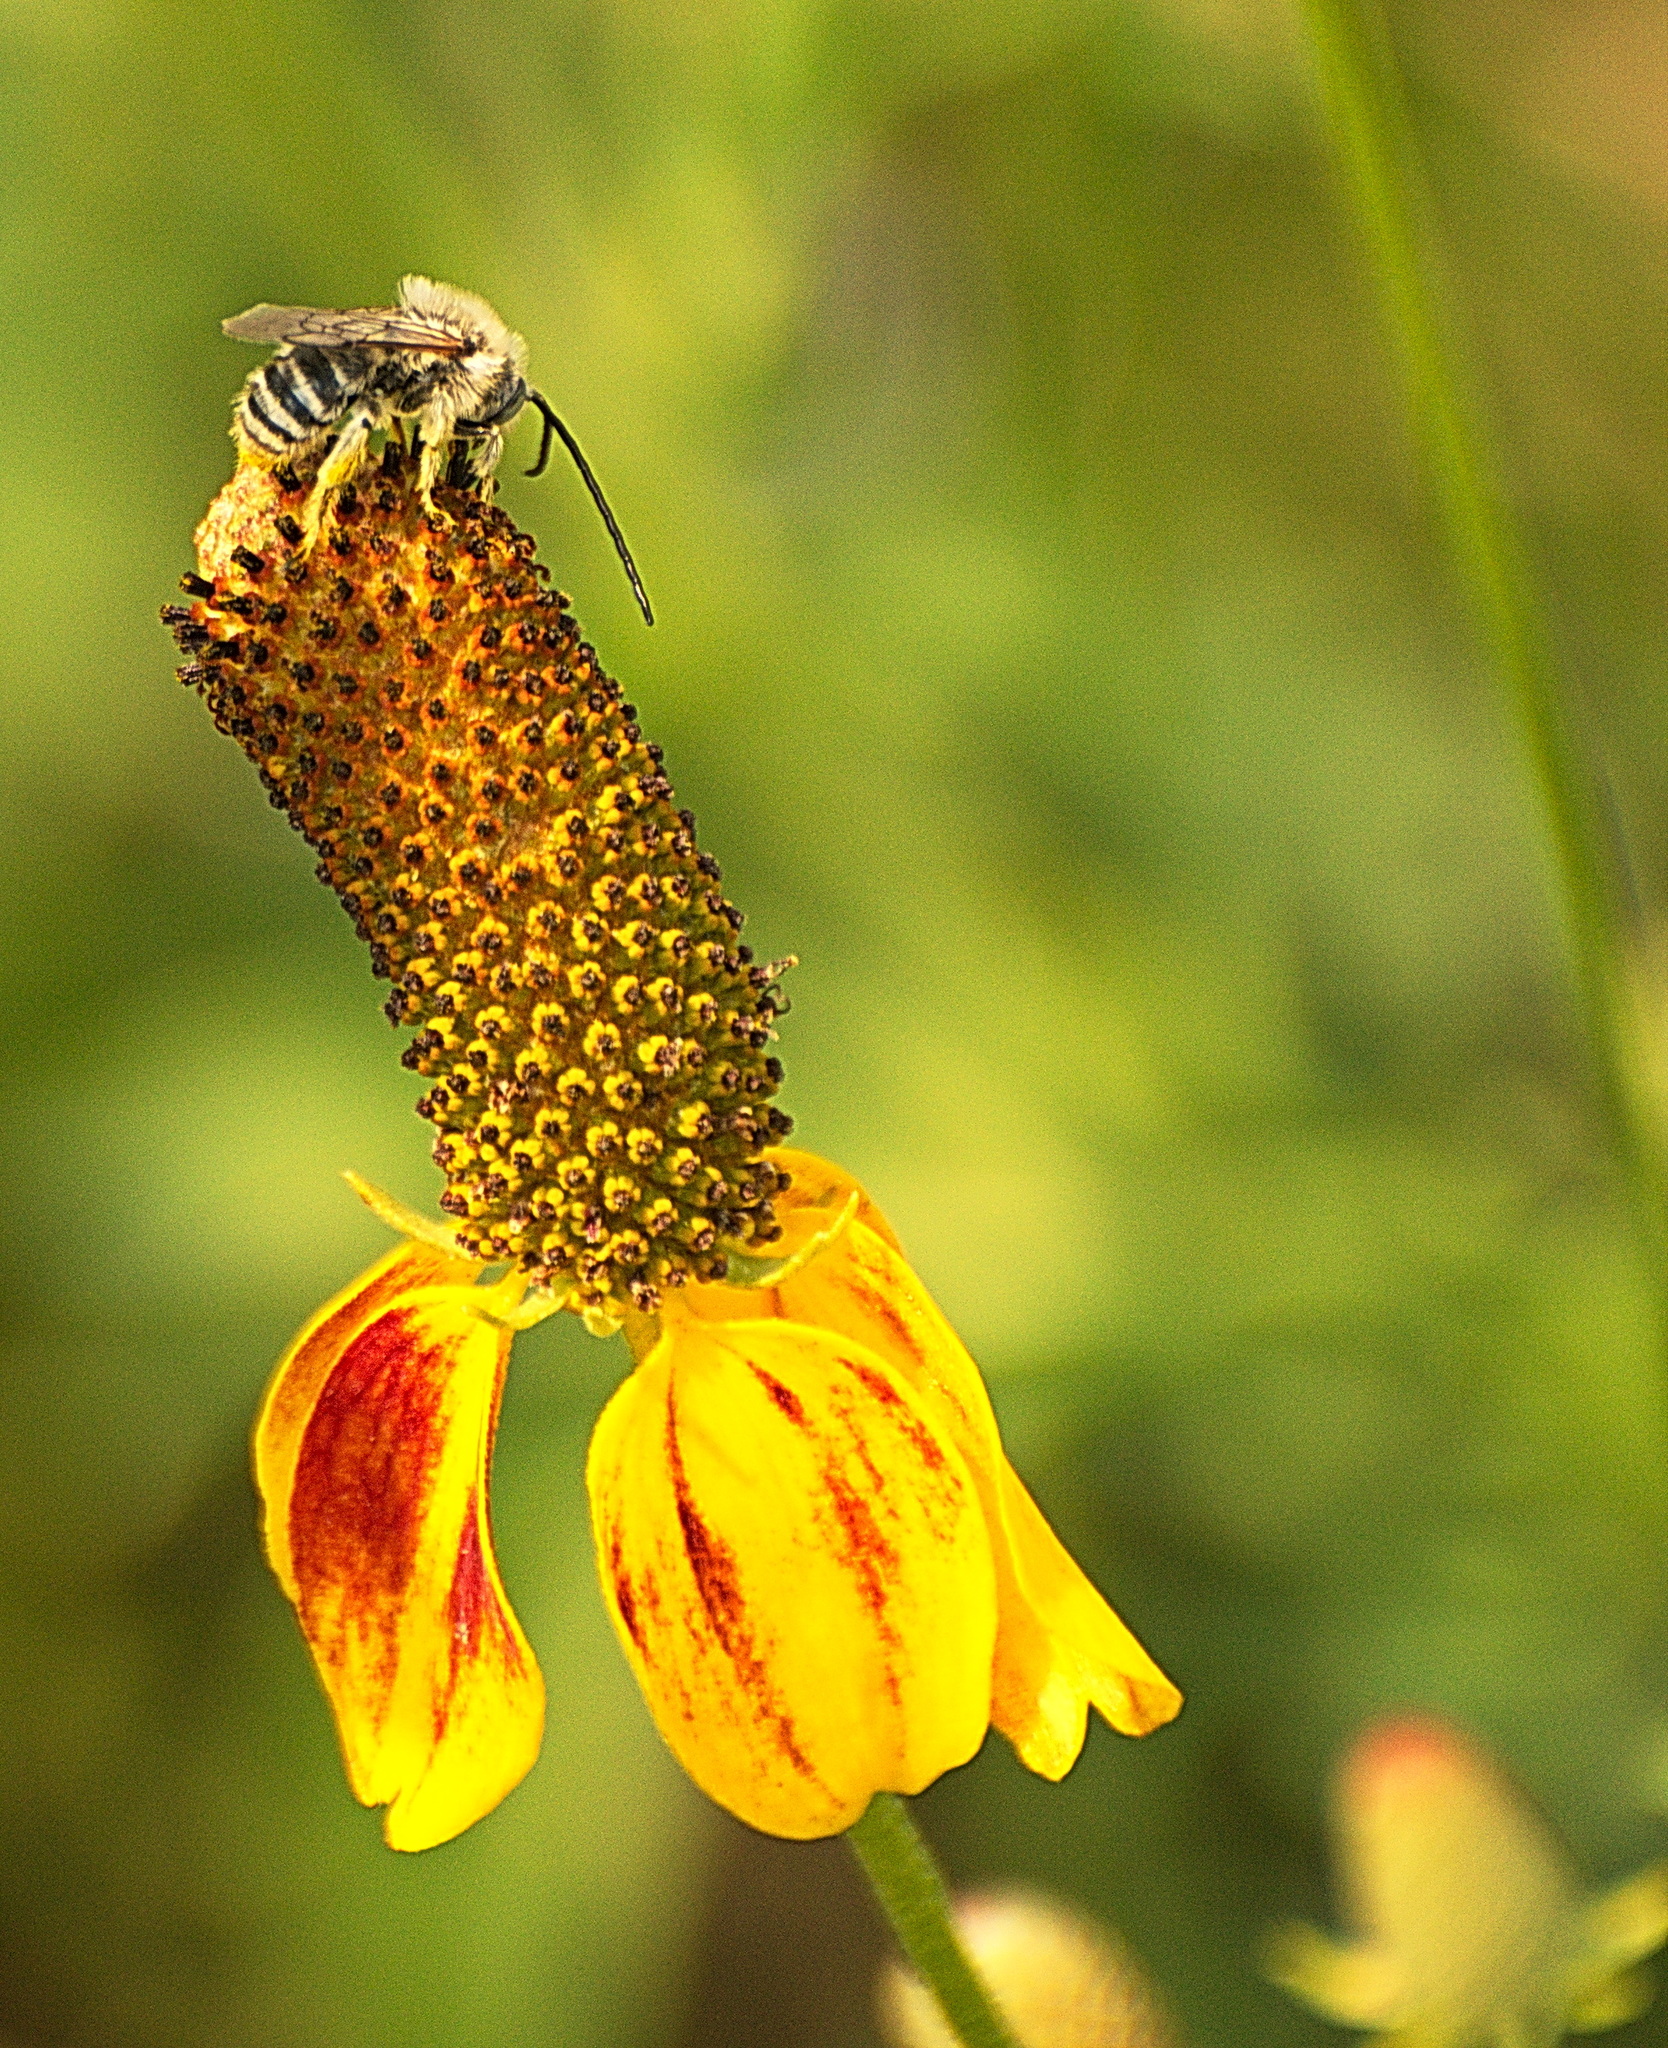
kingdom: Animalia
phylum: Arthropoda
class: Insecta
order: Hymenoptera
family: Apidae
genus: Melissodes
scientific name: Melissodes
